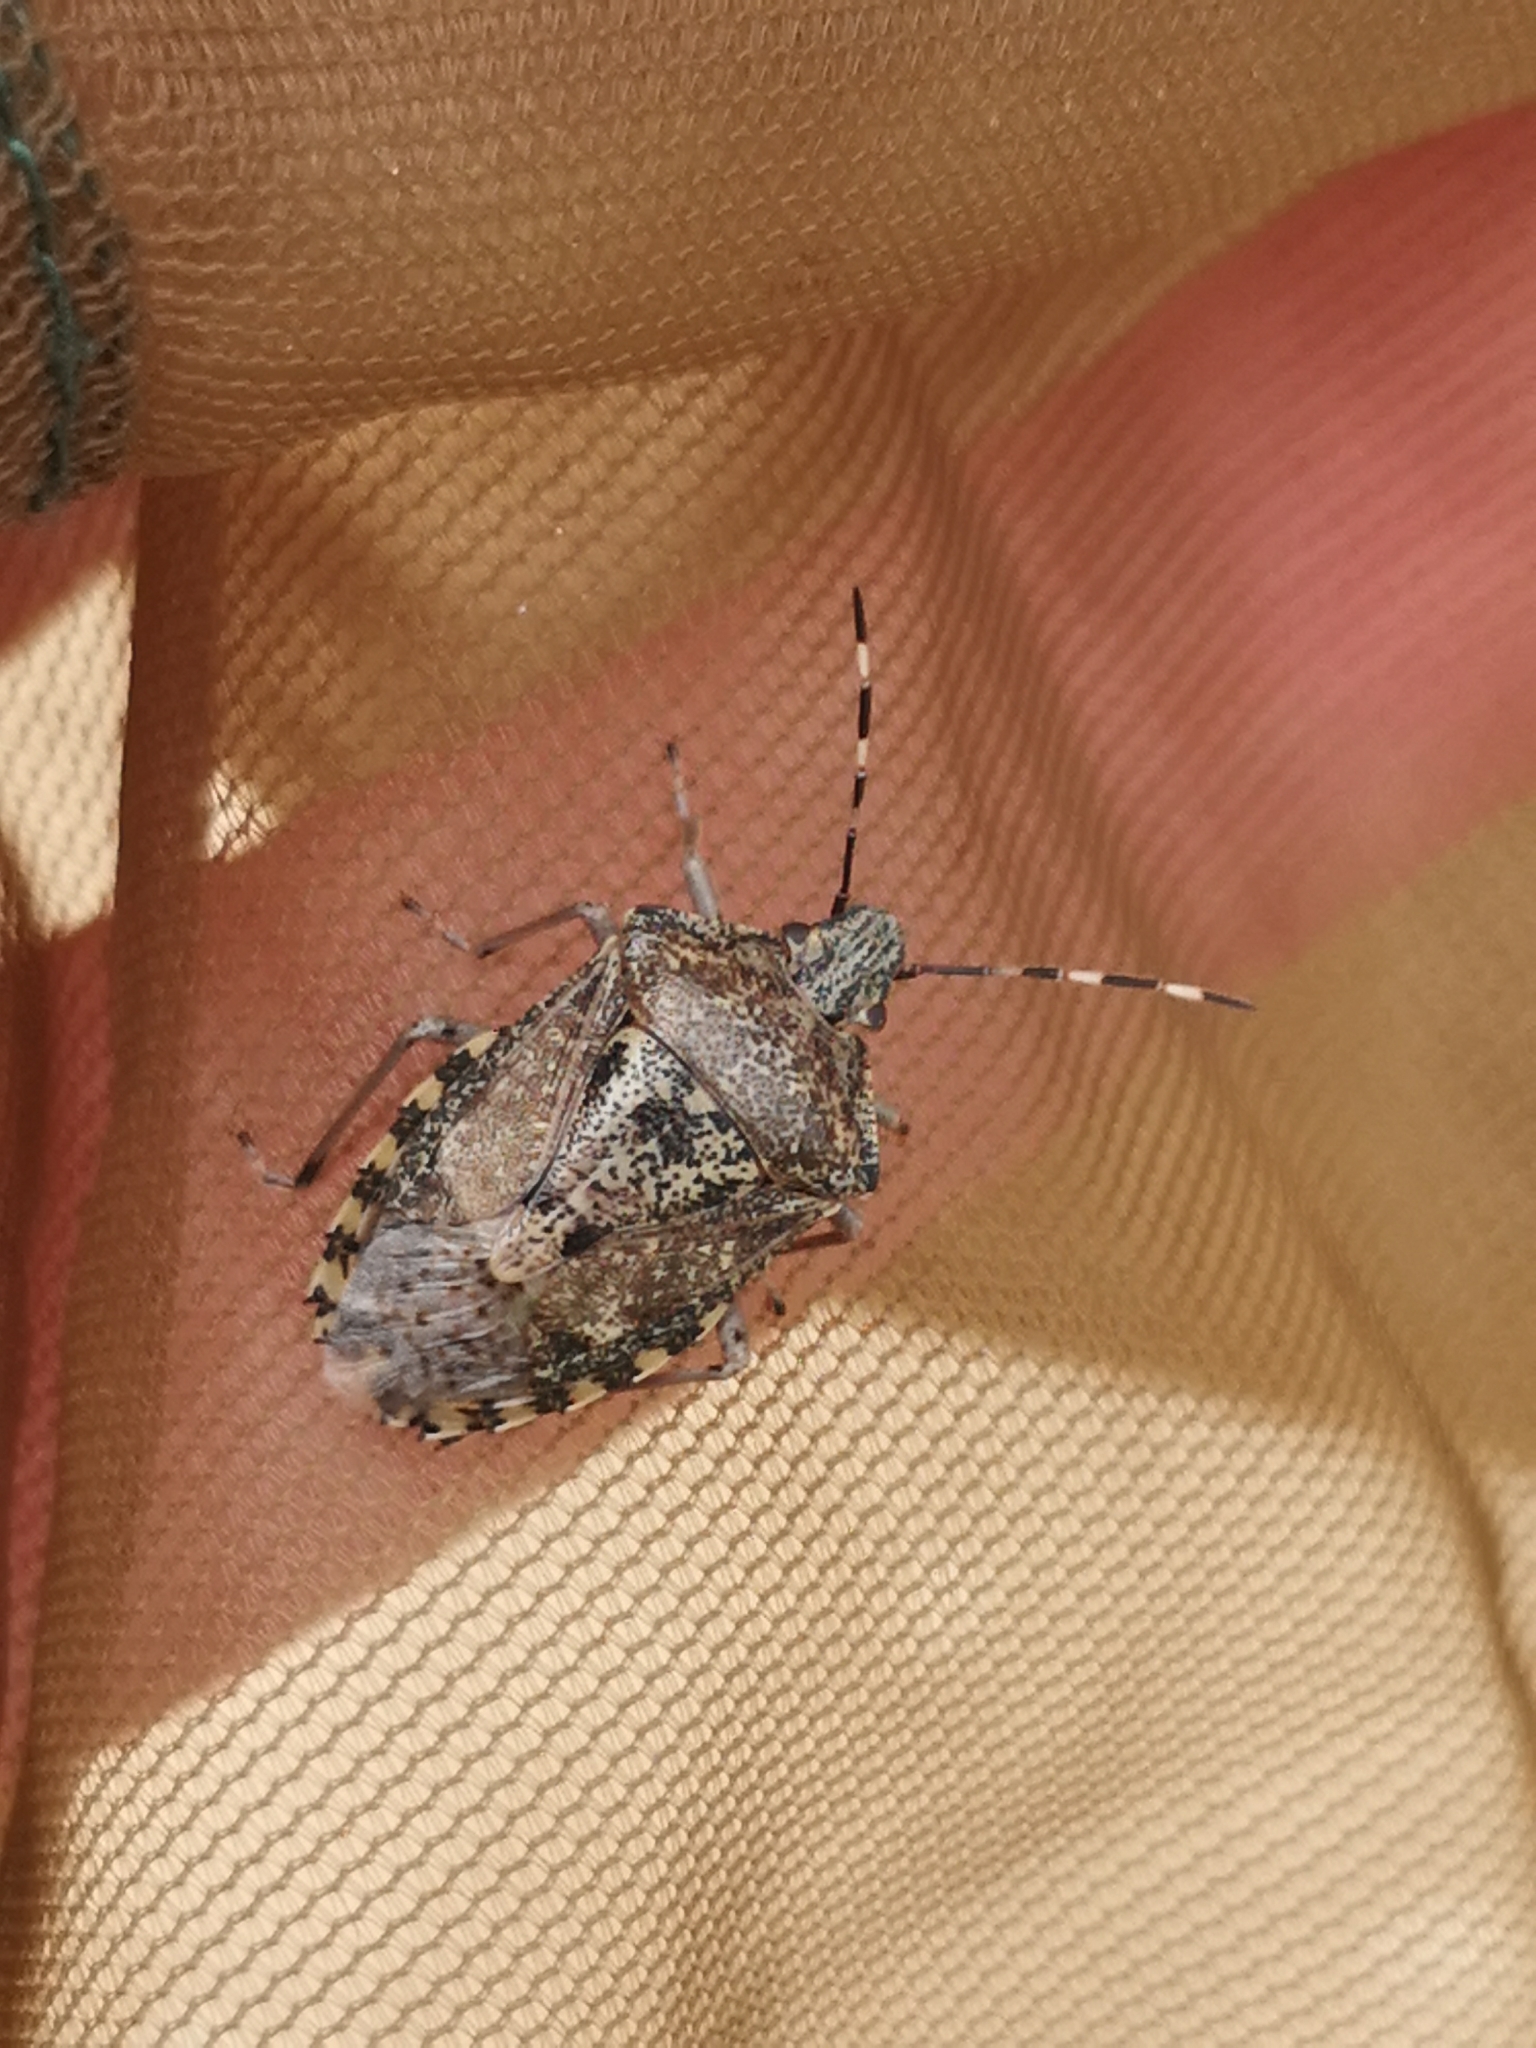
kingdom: Animalia
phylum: Arthropoda
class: Insecta
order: Hemiptera
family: Pentatomidae
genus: Rhaphigaster
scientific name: Rhaphigaster nebulosa
